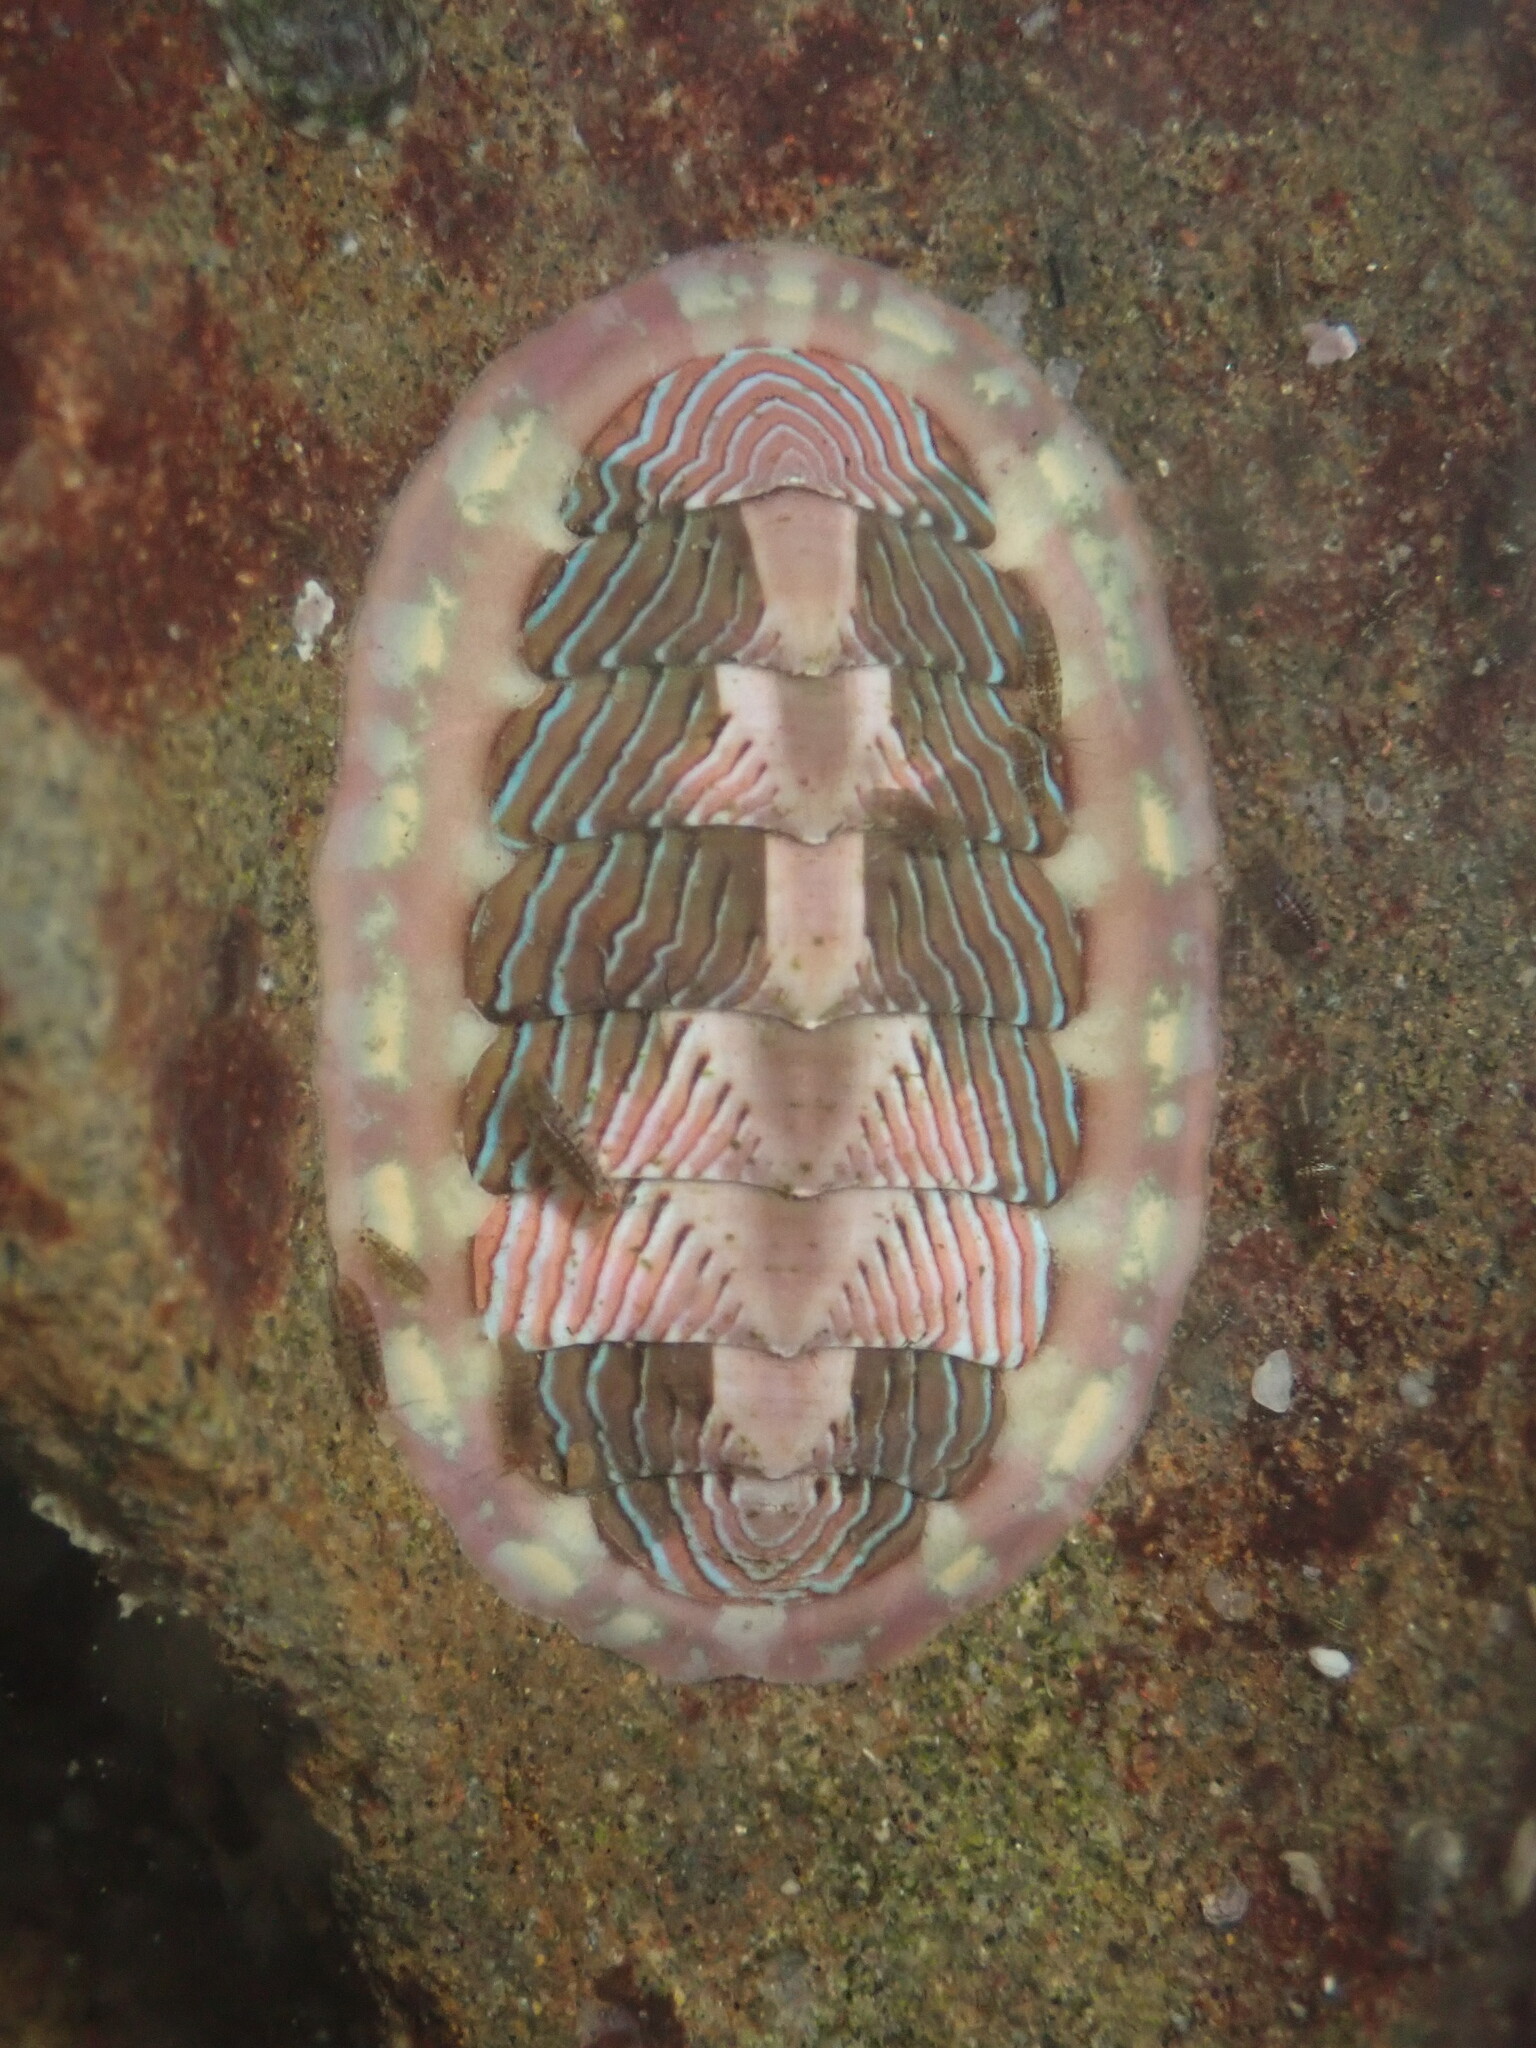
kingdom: Animalia
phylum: Mollusca
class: Polyplacophora
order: Chitonida
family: Tonicellidae
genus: Tonicella
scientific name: Tonicella lineata
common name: Lined chiton
